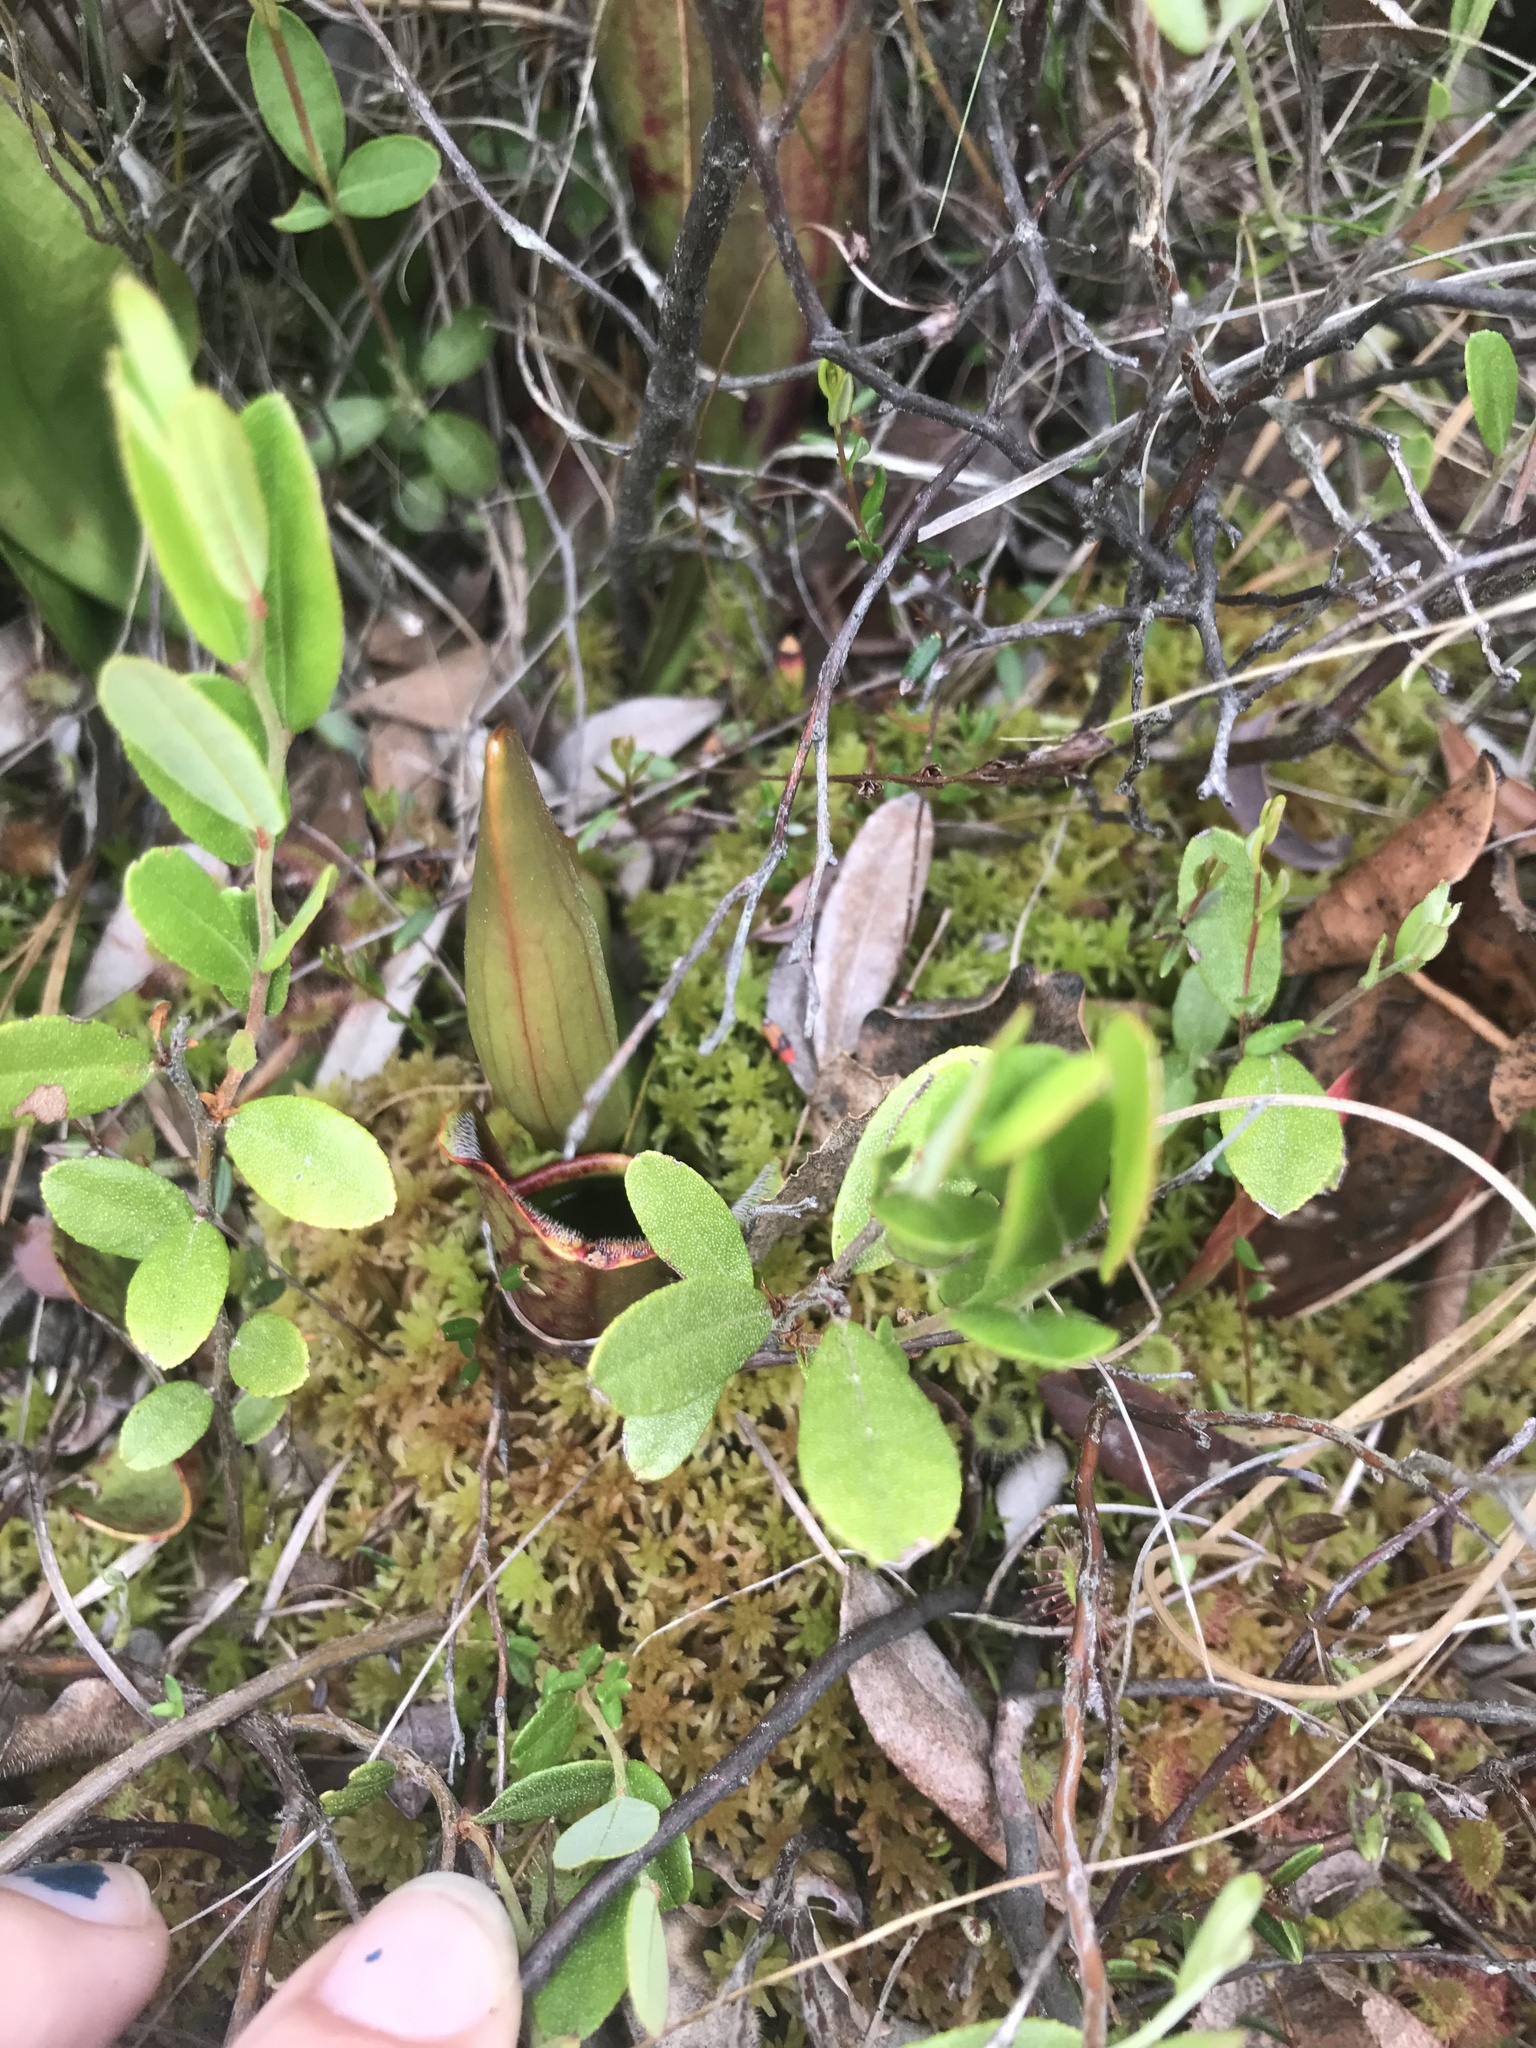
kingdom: Plantae
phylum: Tracheophyta
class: Magnoliopsida
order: Ericales
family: Sarraceniaceae
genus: Sarracenia
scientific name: Sarracenia purpurea
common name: Pitcherplant
